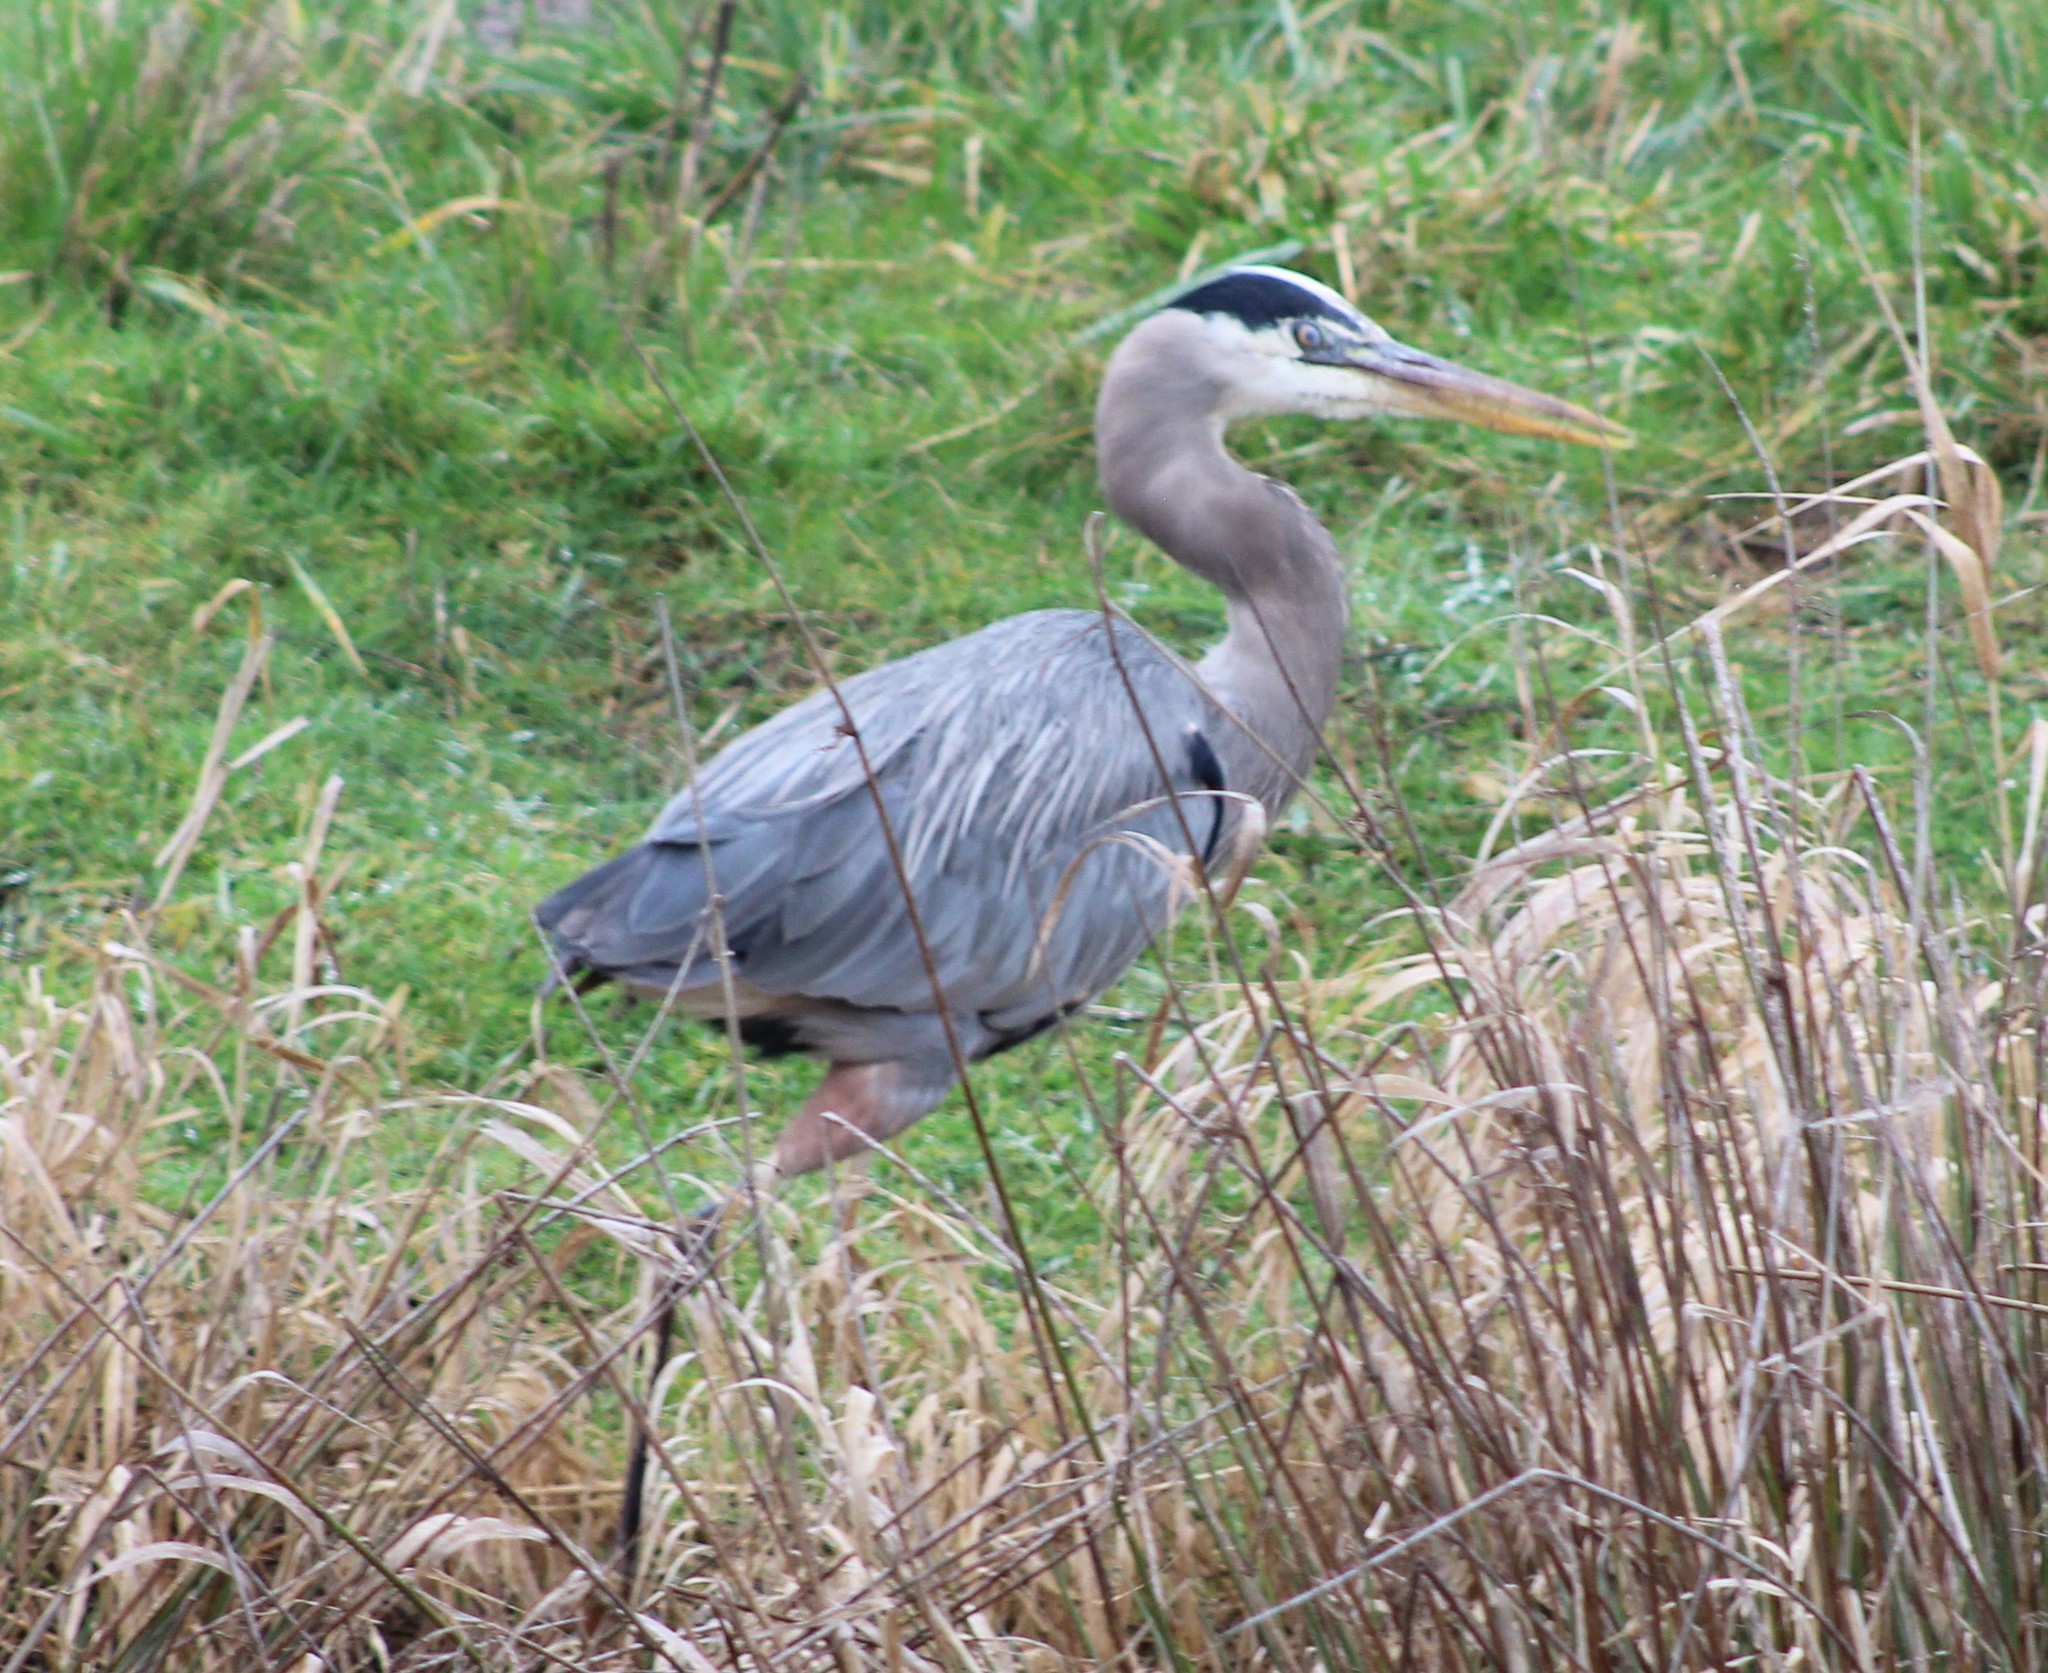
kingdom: Animalia
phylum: Chordata
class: Aves
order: Pelecaniformes
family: Ardeidae
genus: Ardea
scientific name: Ardea herodias
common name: Great blue heron
